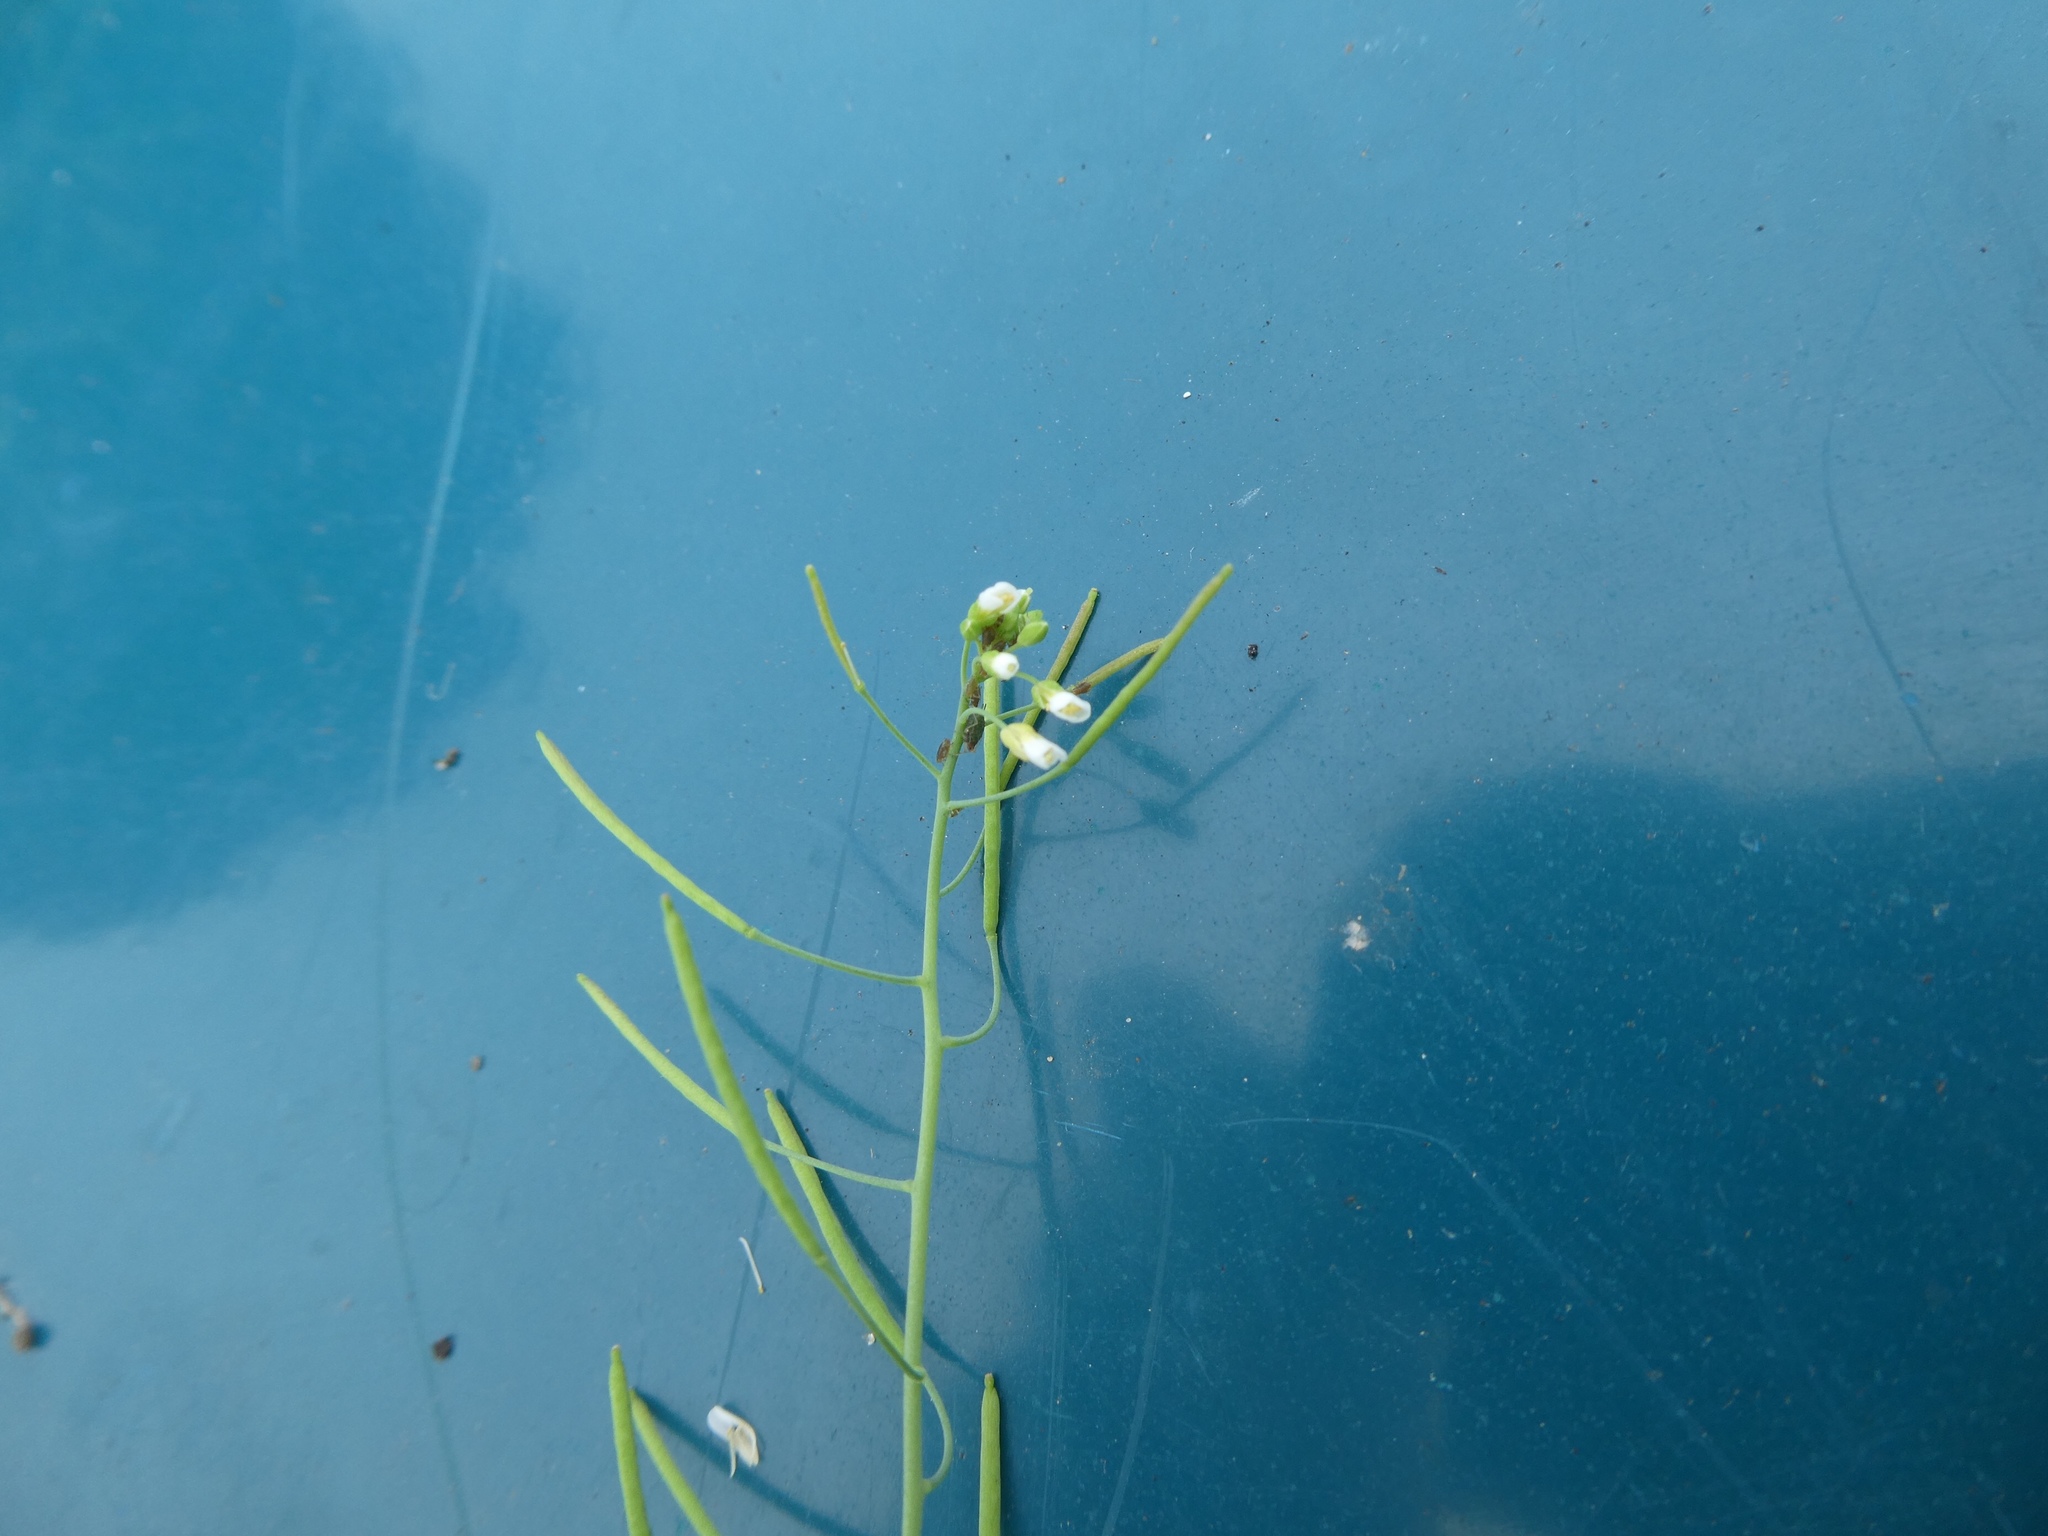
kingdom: Plantae
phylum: Tracheophyta
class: Magnoliopsida
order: Brassicales
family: Brassicaceae
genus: Arabidopsis
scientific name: Arabidopsis thaliana
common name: Thale cress
